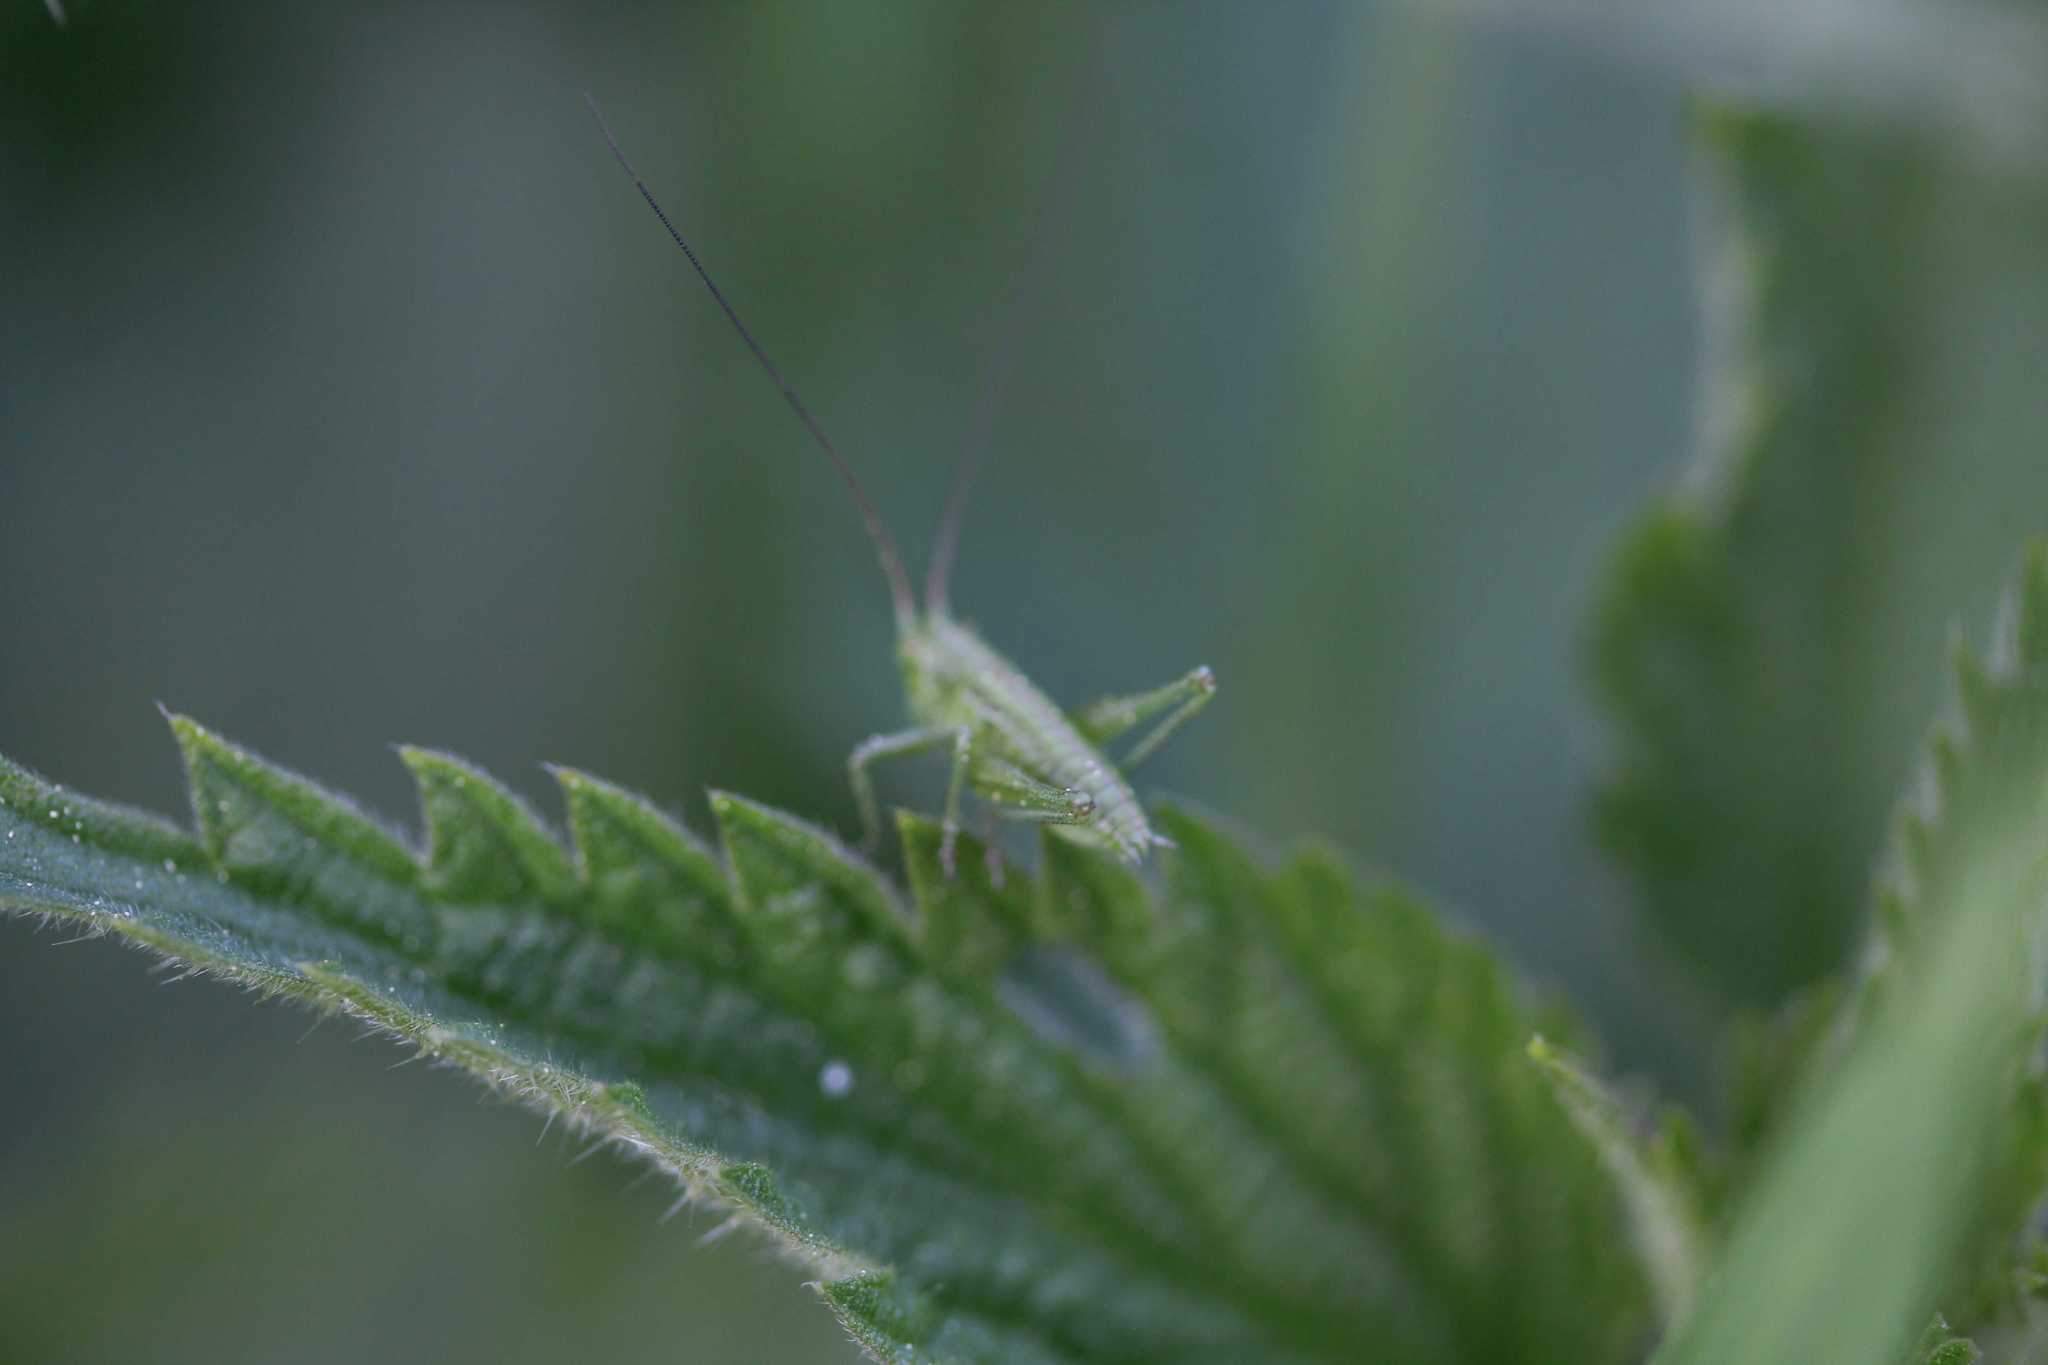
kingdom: Animalia
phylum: Arthropoda
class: Insecta
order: Orthoptera
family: Tettigoniidae
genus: Tettigonia
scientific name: Tettigonia viridissima
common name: Great green bush-cricket
